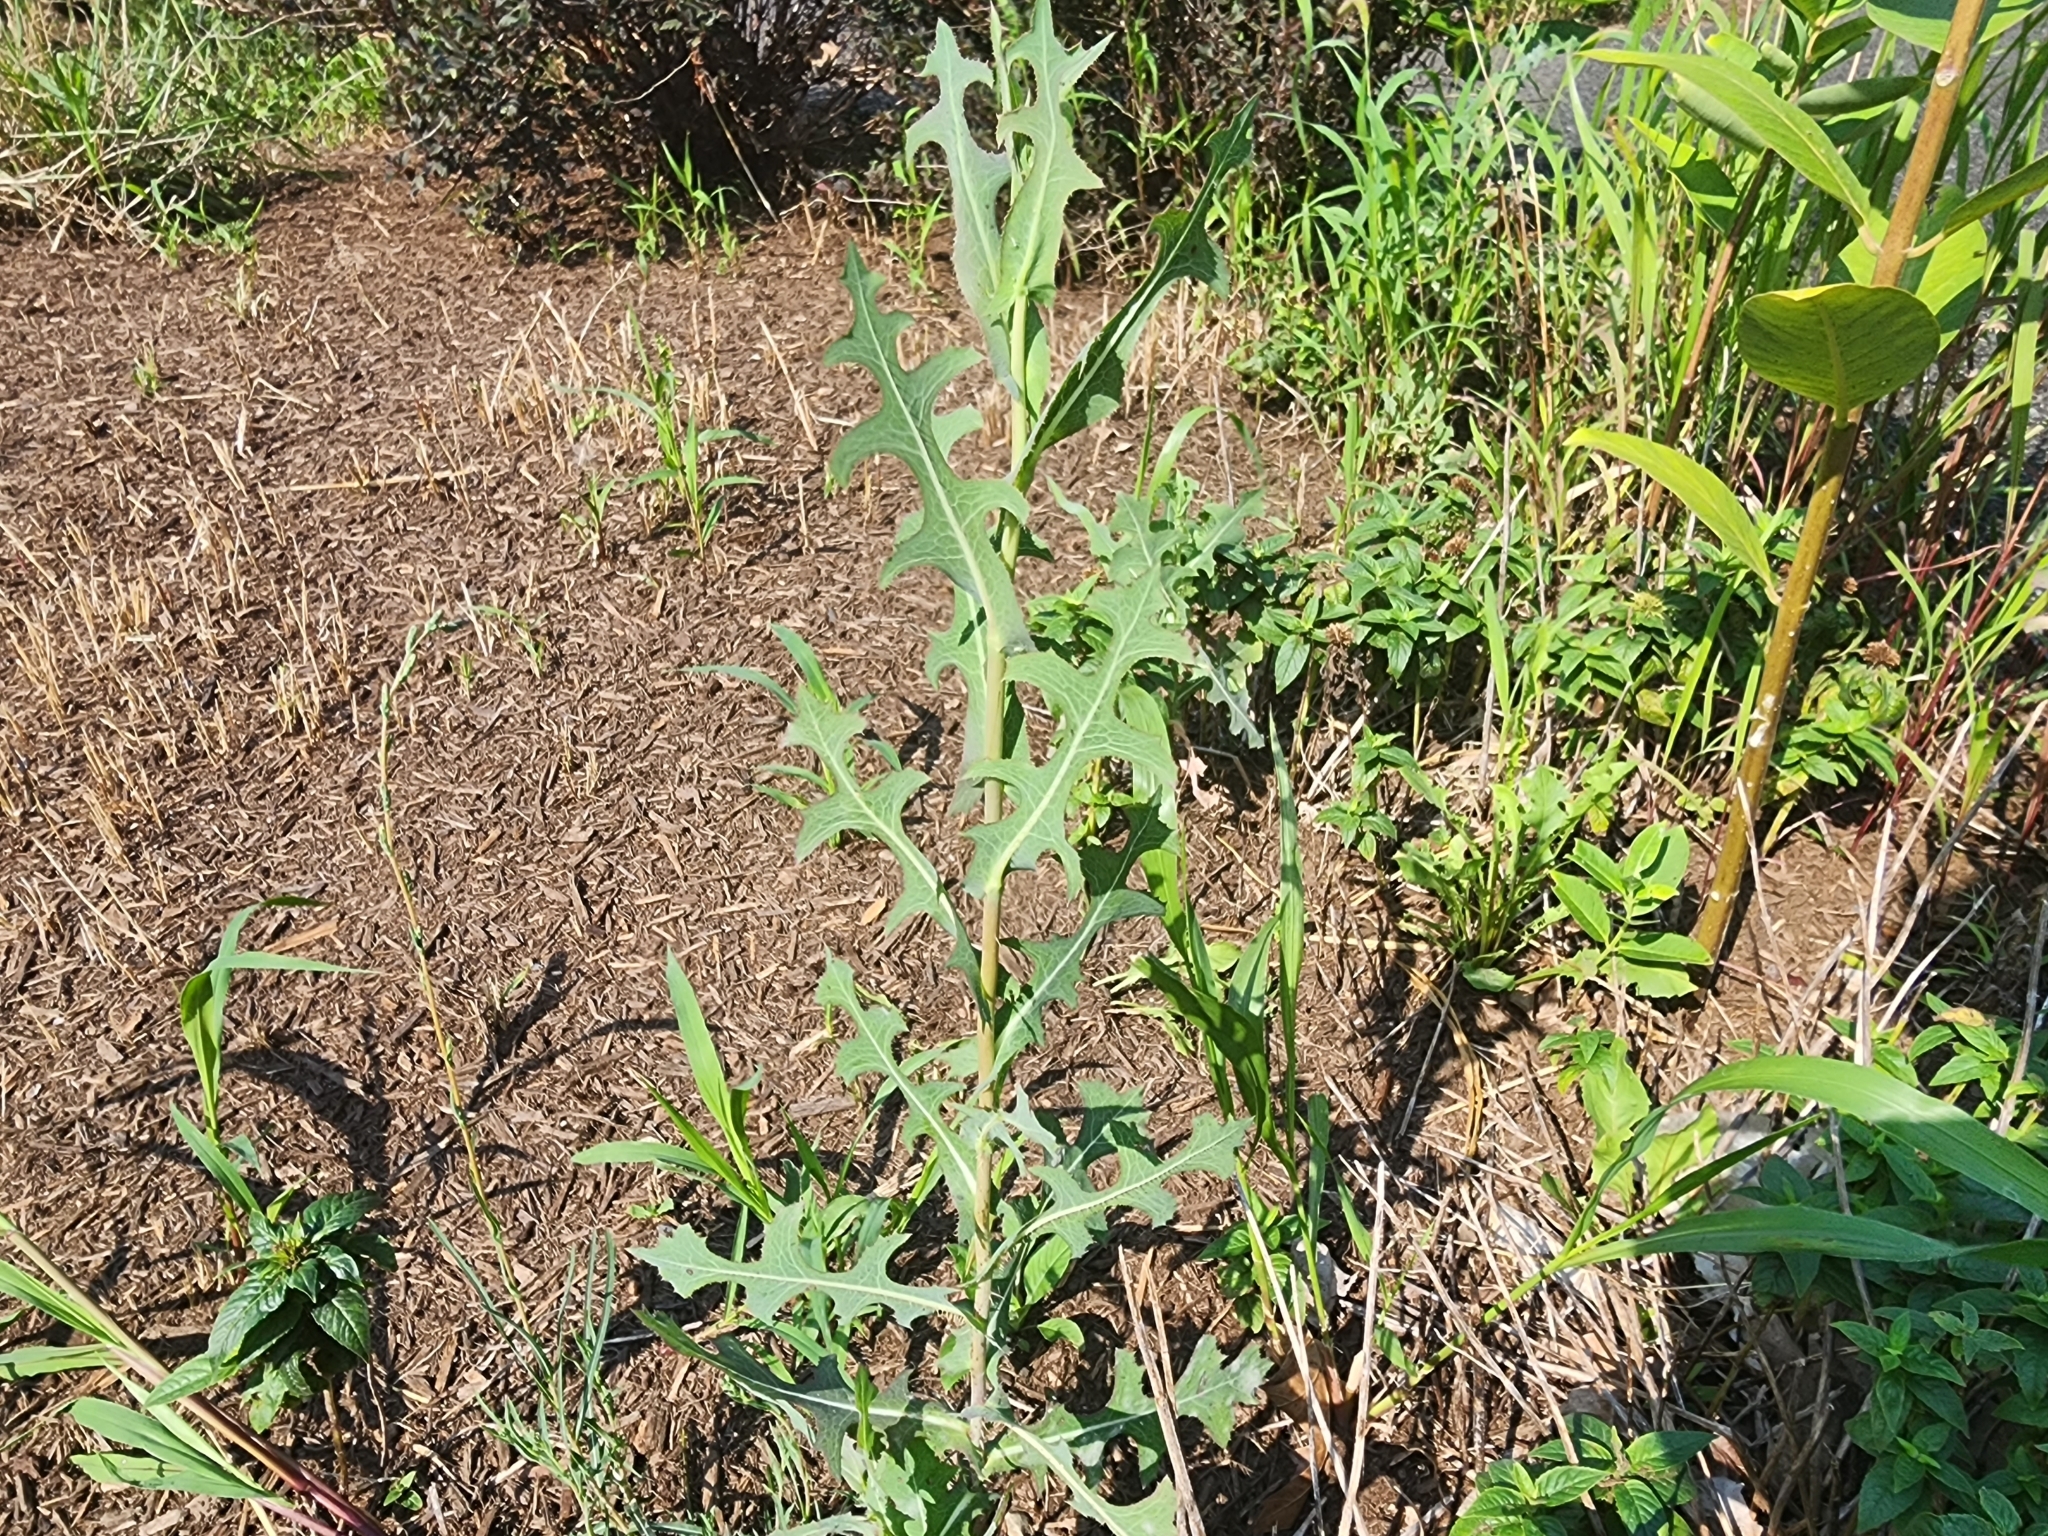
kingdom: Plantae
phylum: Tracheophyta
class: Magnoliopsida
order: Asterales
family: Asteraceae
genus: Lactuca
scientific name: Lactuca serriola
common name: Prickly lettuce
